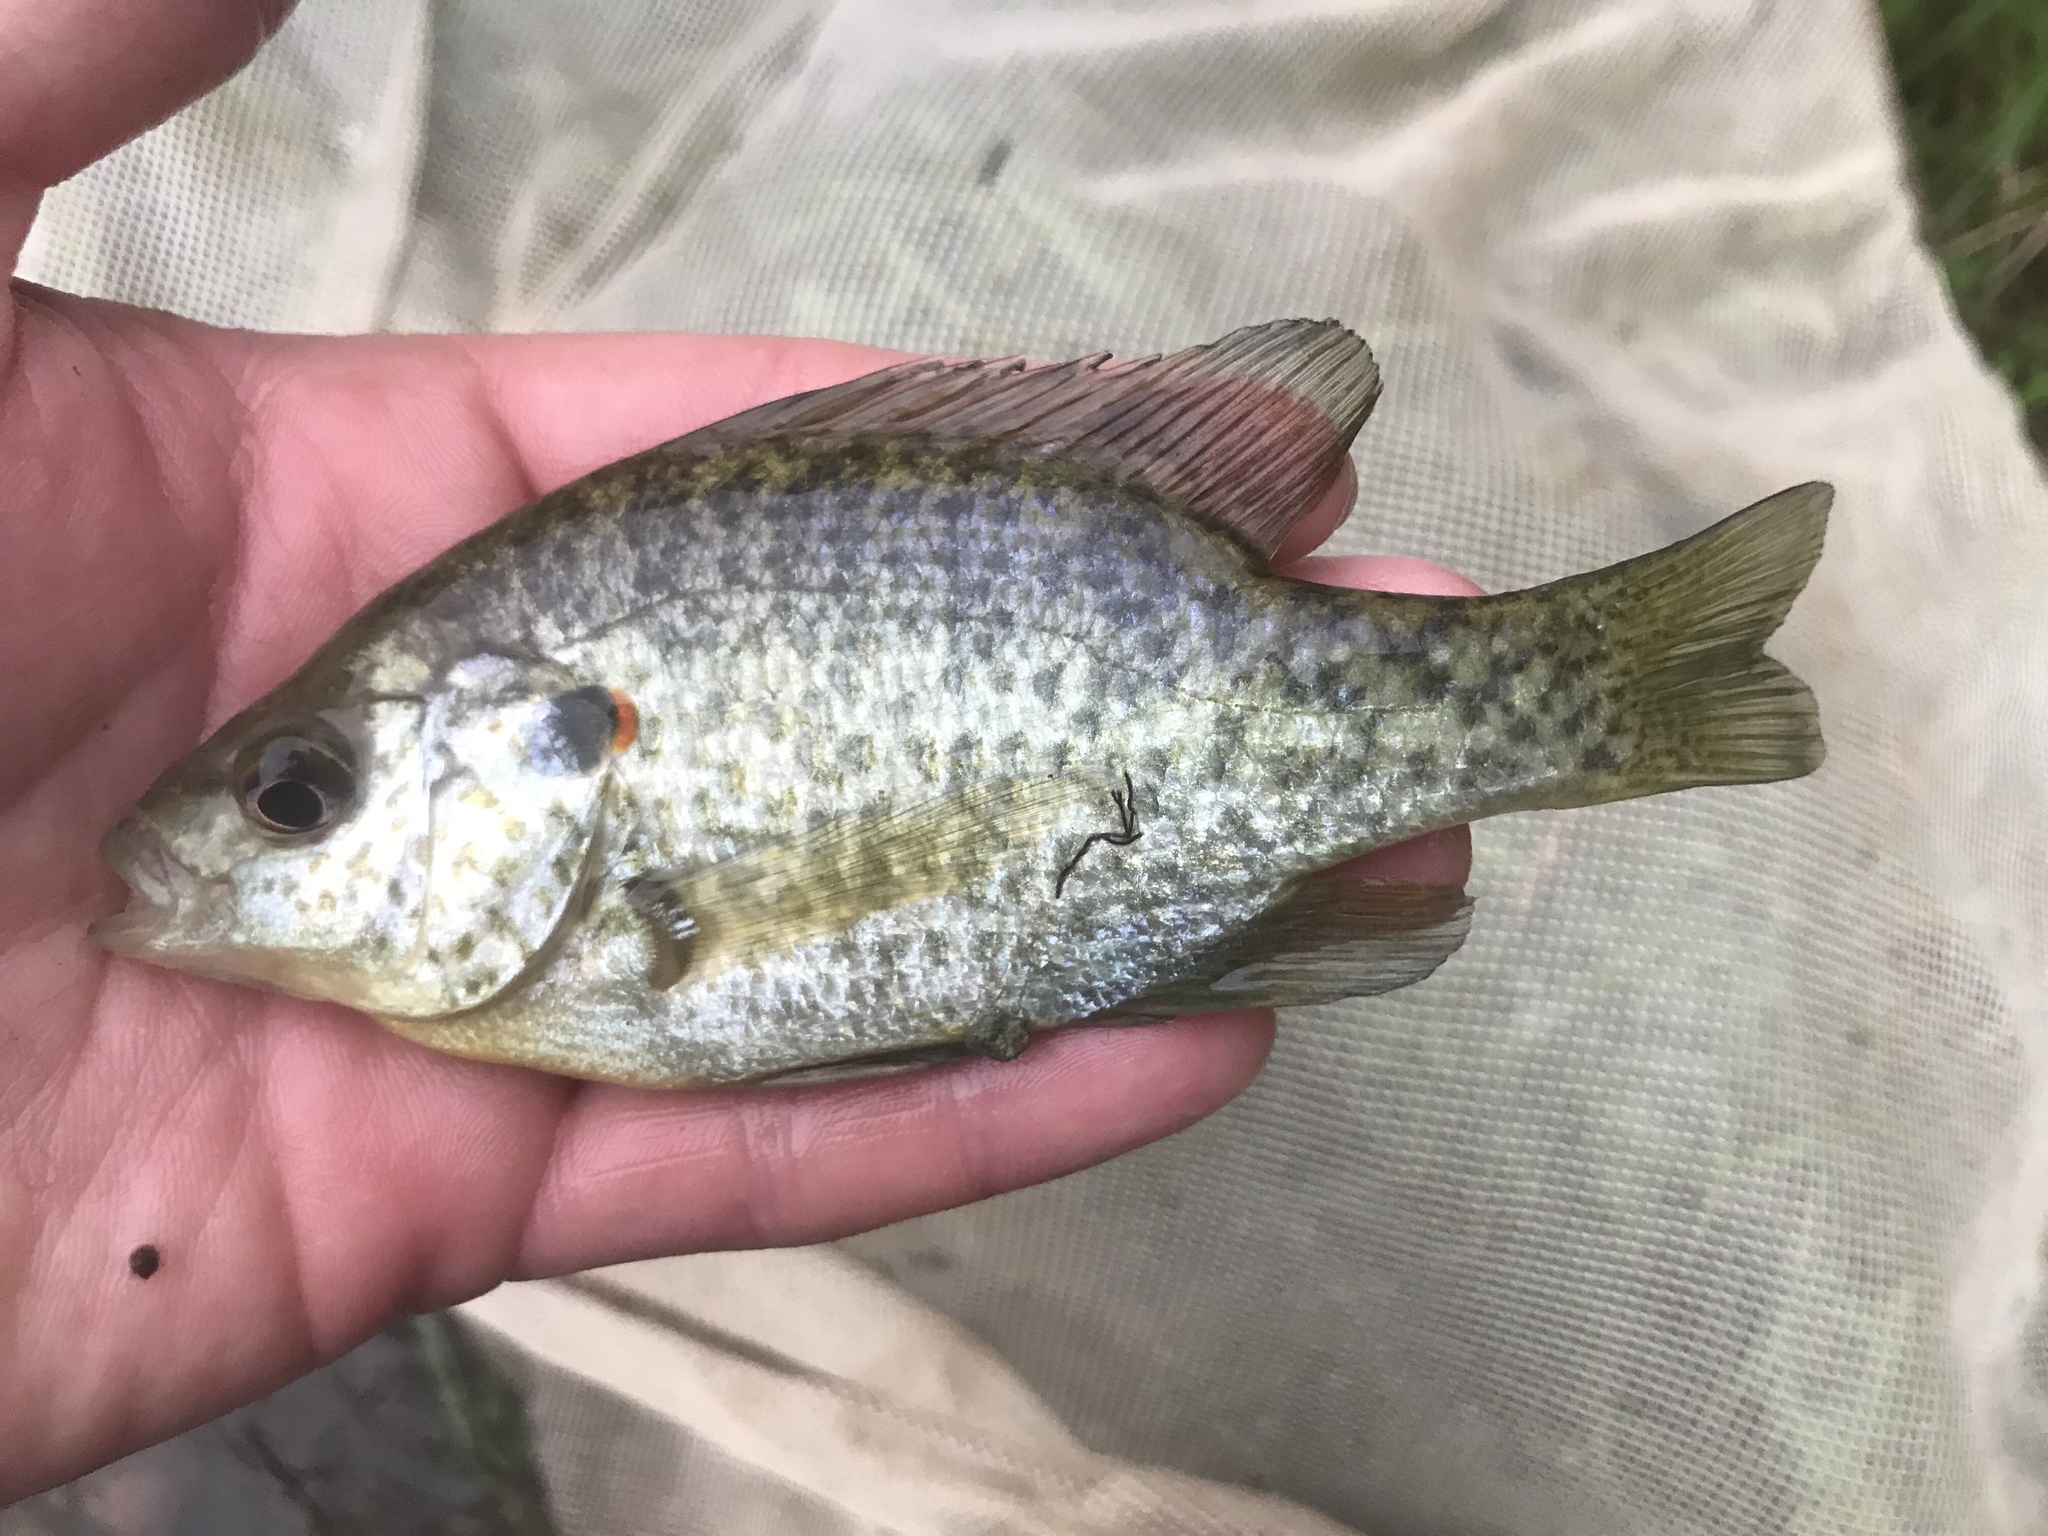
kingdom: Animalia
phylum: Chordata
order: Perciformes
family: Centrarchidae
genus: Lepomis
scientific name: Lepomis microlophus
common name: Redear sunfish
